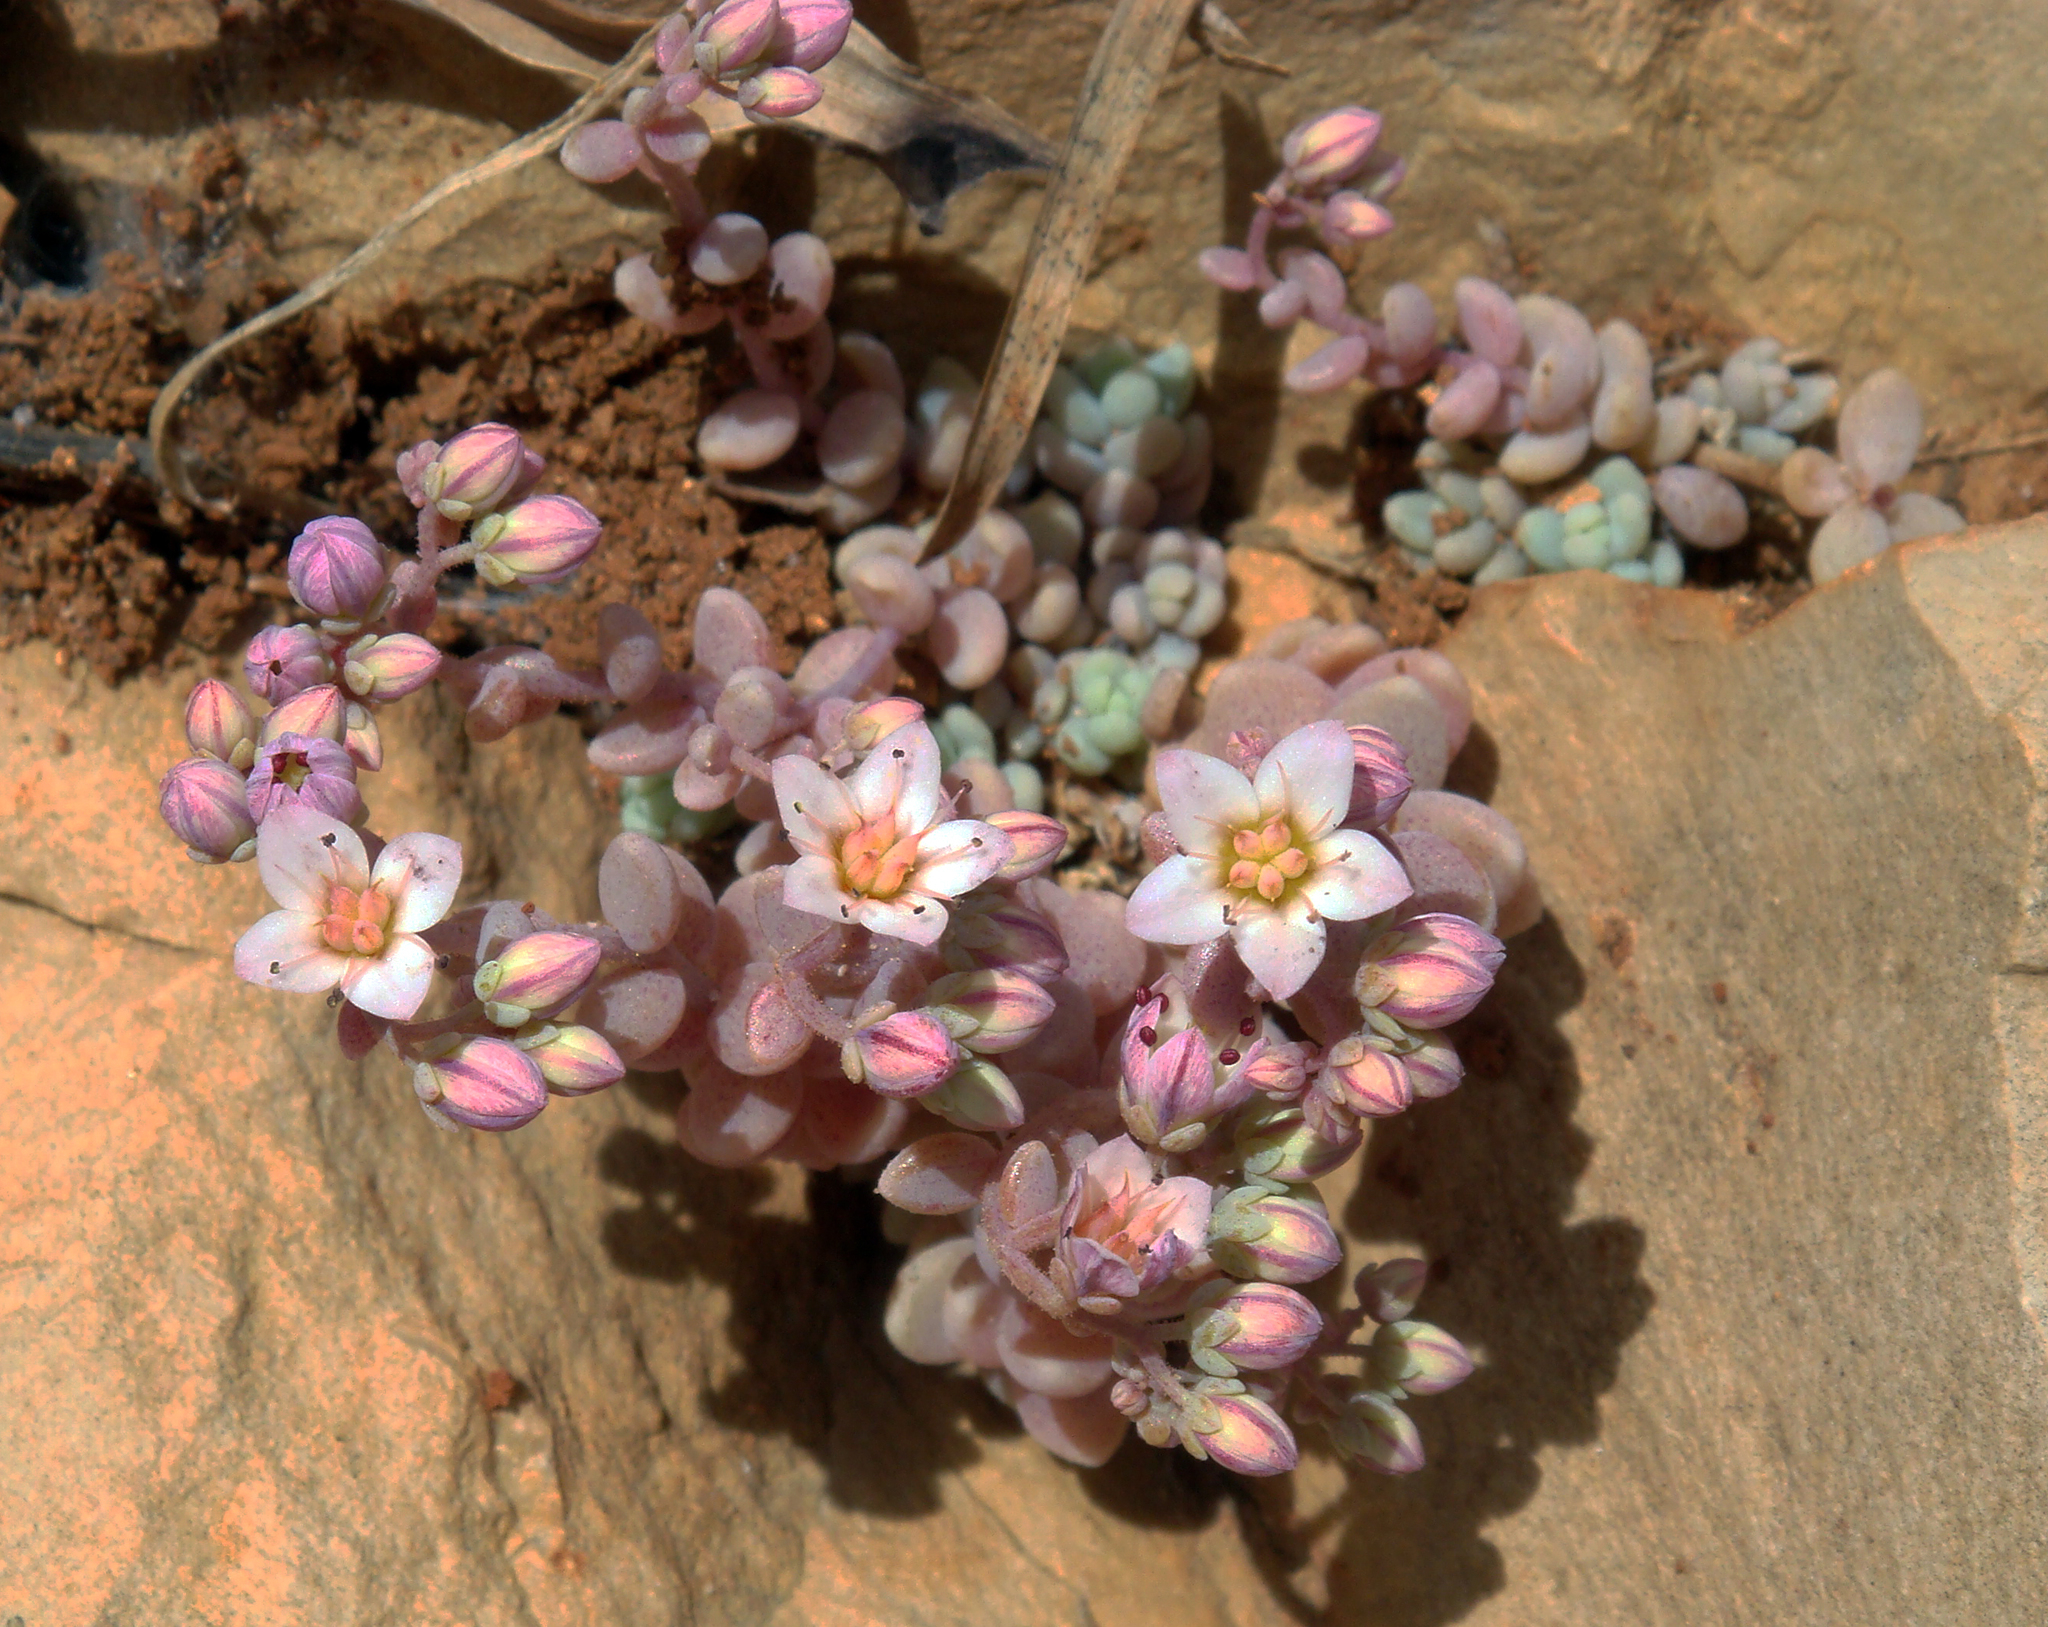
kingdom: Plantae
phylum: Tracheophyta
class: Magnoliopsida
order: Saxifragales
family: Crassulaceae
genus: Sedum
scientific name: Sedum dasyphyllum
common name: Thick-leaf stonecrop
